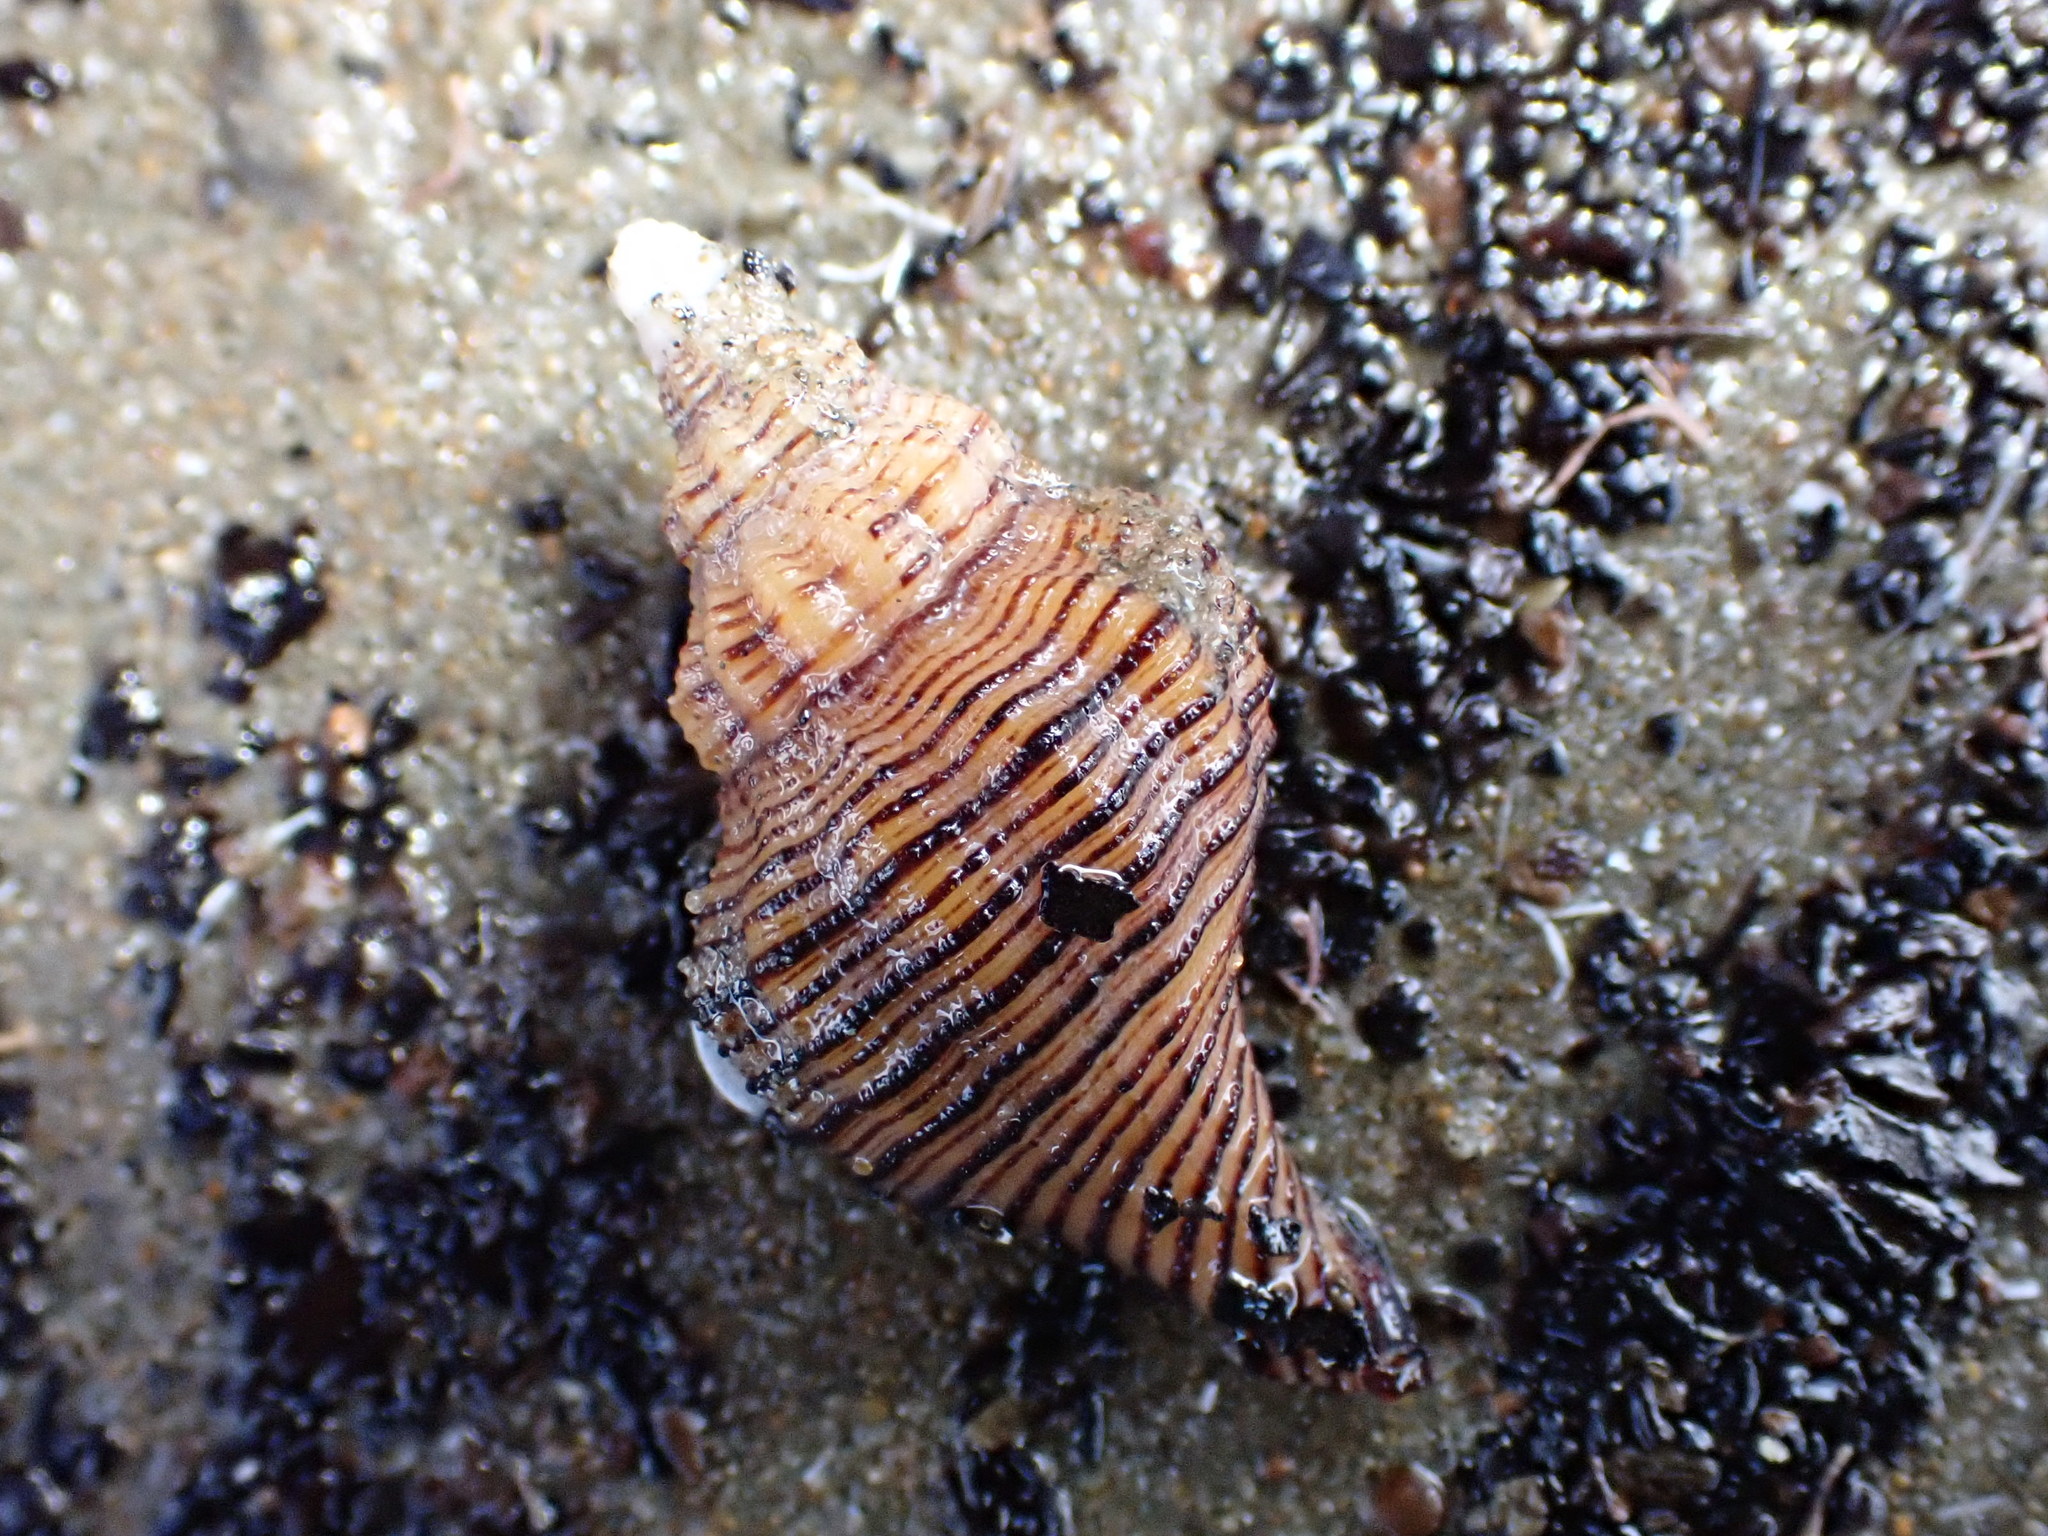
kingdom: Animalia
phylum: Mollusca
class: Gastropoda
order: Neogastropoda
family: Austrosiphonidae
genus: Penion
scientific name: Penion sulcatus
